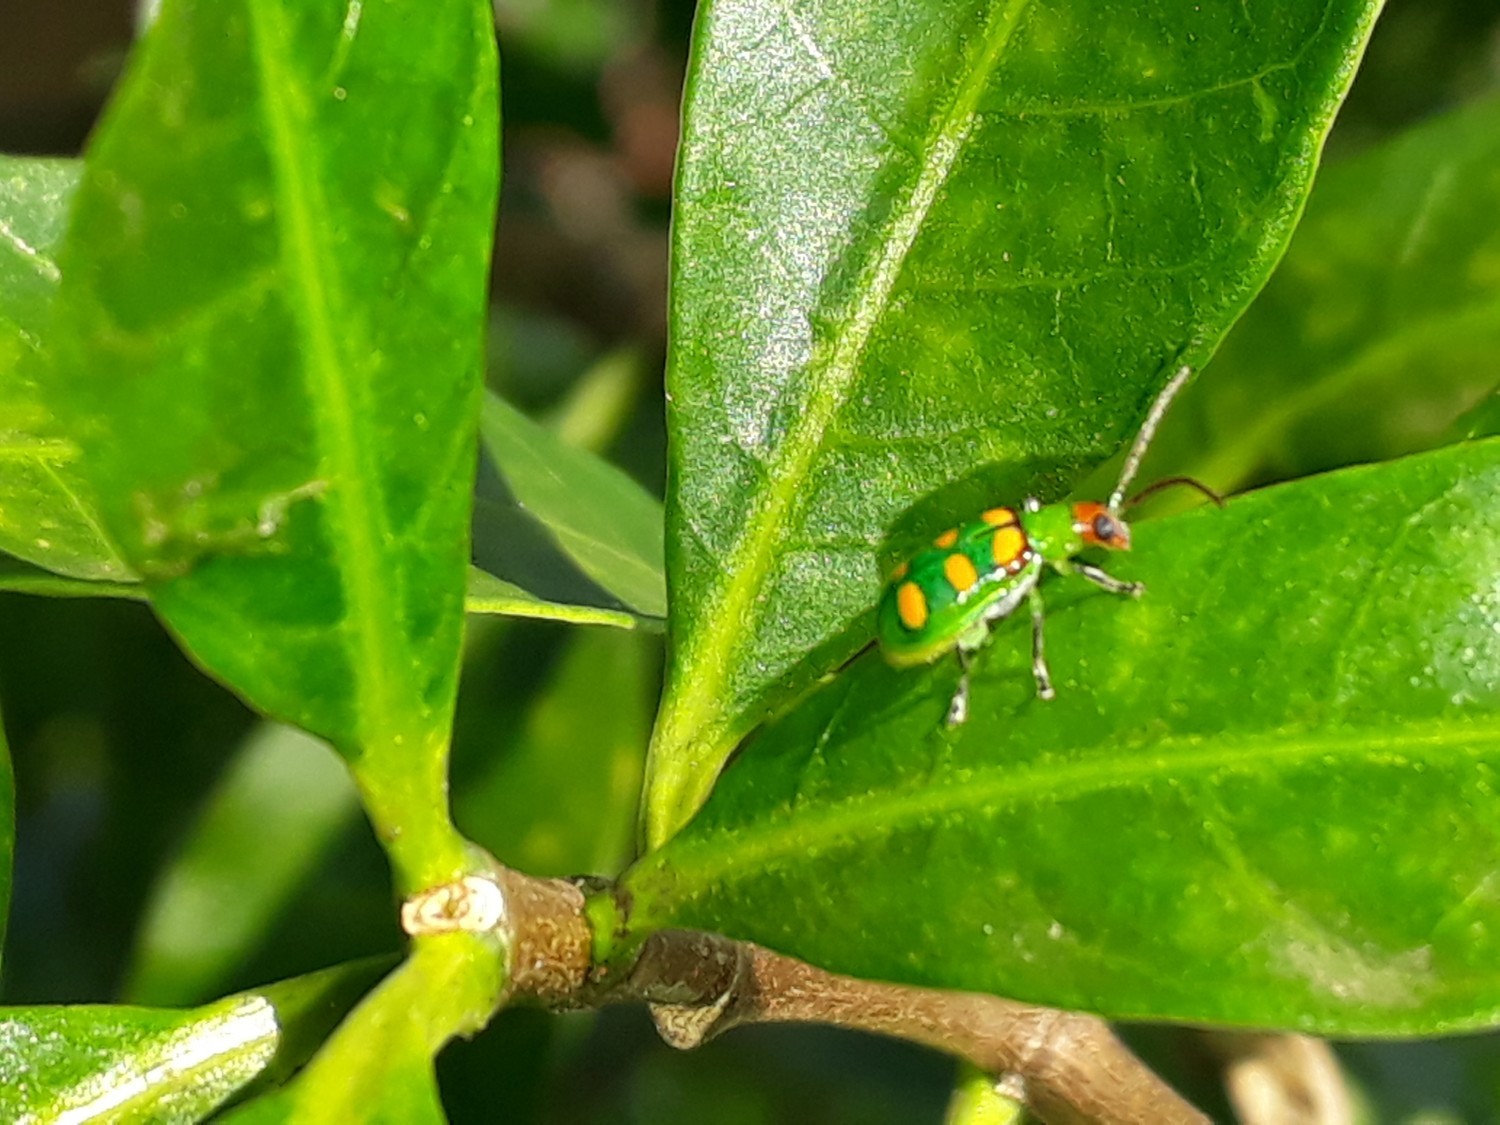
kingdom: Animalia
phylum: Arthropoda
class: Insecta
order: Coleoptera
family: Chrysomelidae
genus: Diabrotica
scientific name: Diabrotica speciosa
